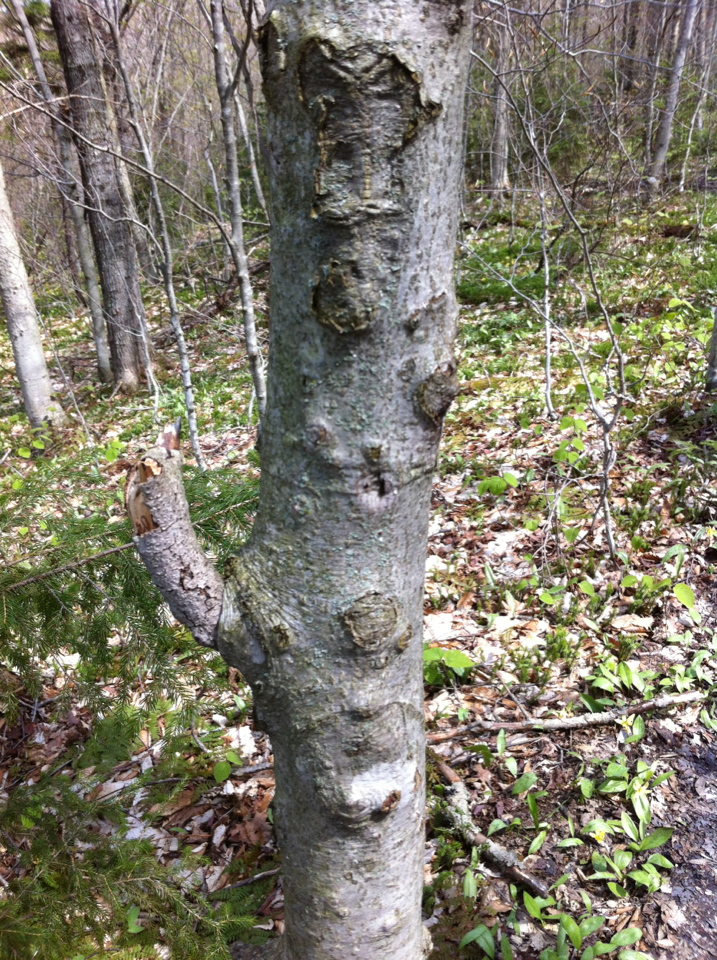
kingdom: Plantae
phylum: Tracheophyta
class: Magnoliopsida
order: Fagales
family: Fagaceae
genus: Fagus
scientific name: Fagus grandifolia
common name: American beech
